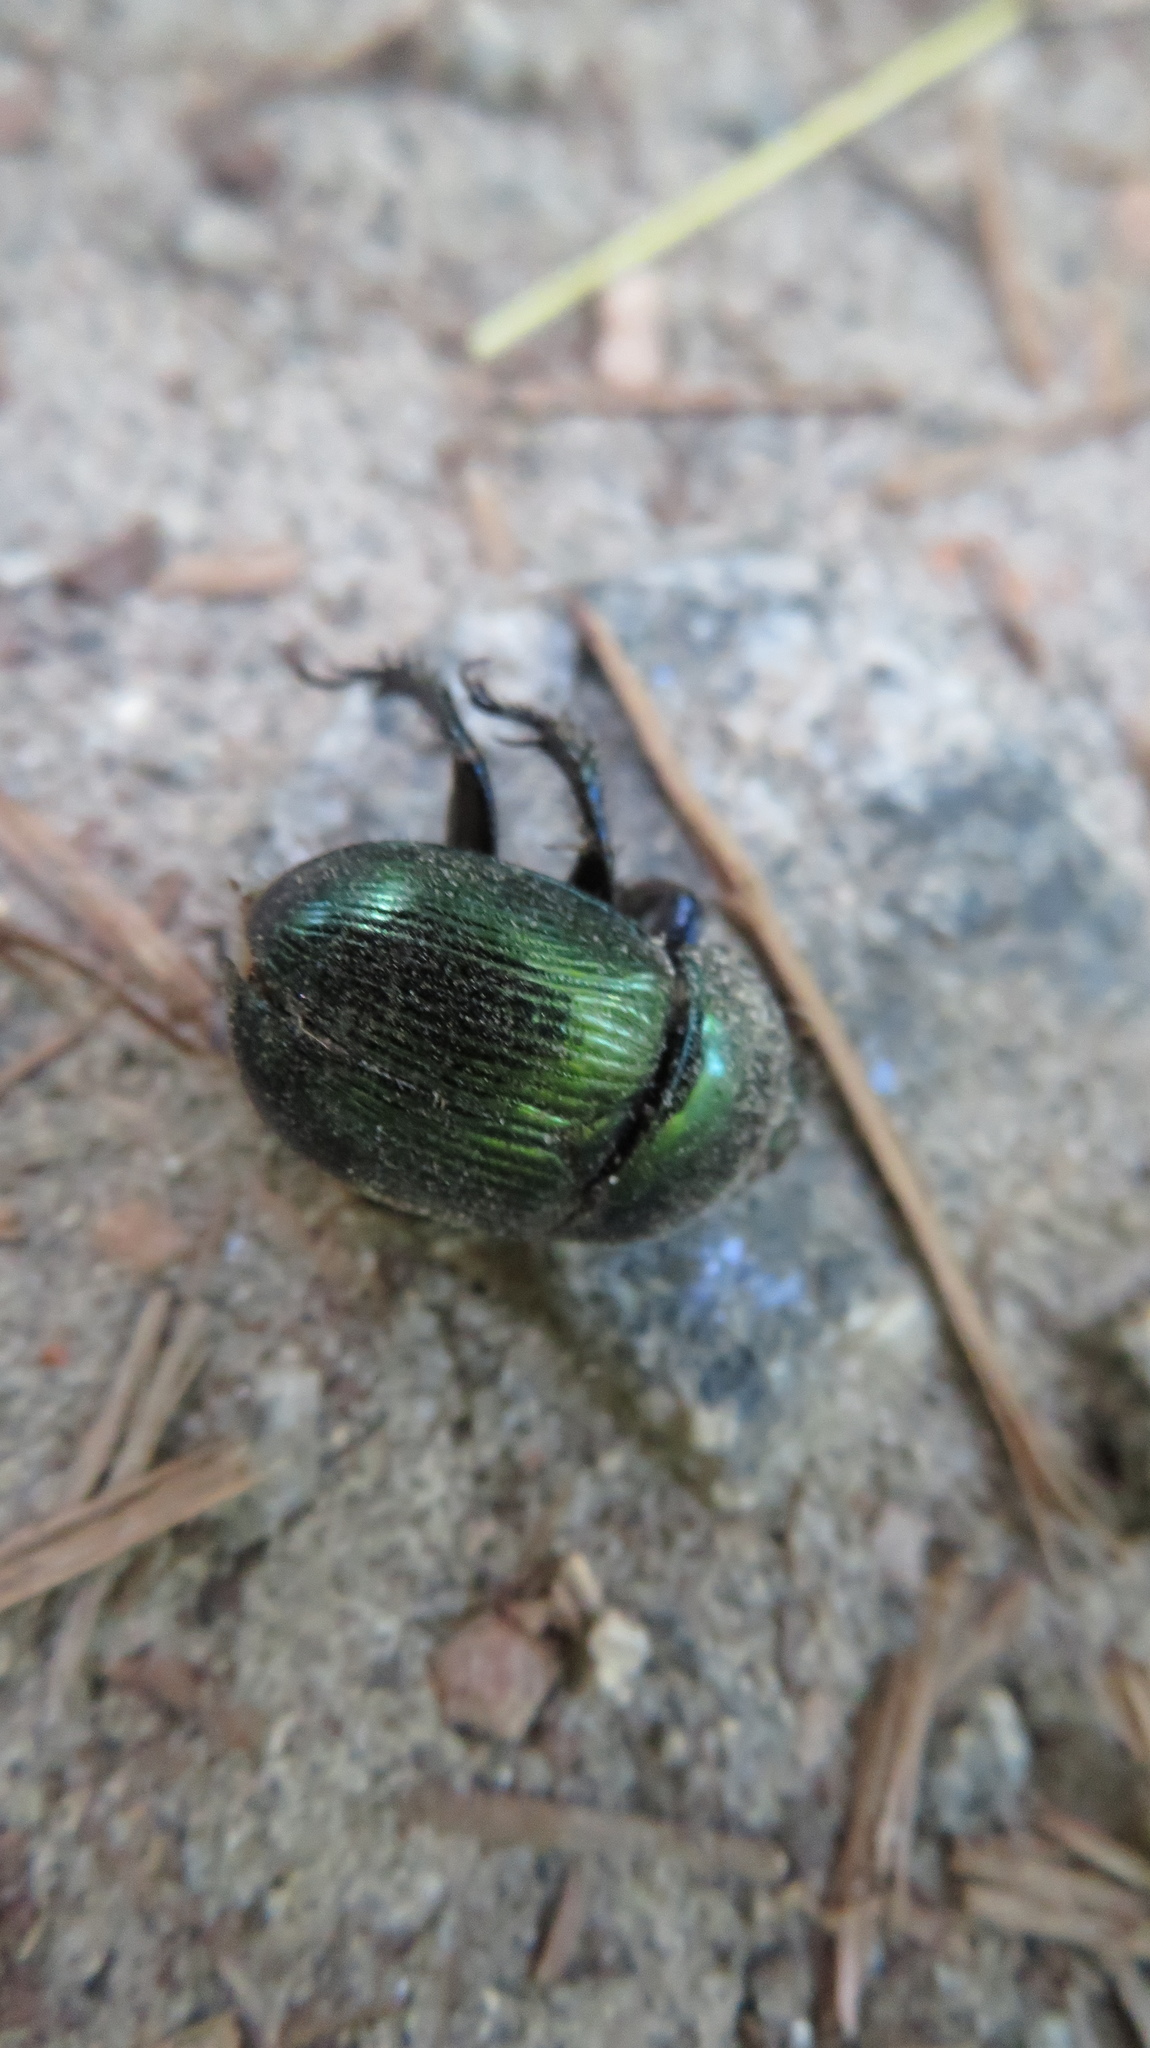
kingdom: Animalia
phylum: Arthropoda
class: Insecta
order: Coleoptera
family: Geotrupidae
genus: Geotrupes
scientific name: Geotrupes splendidus
